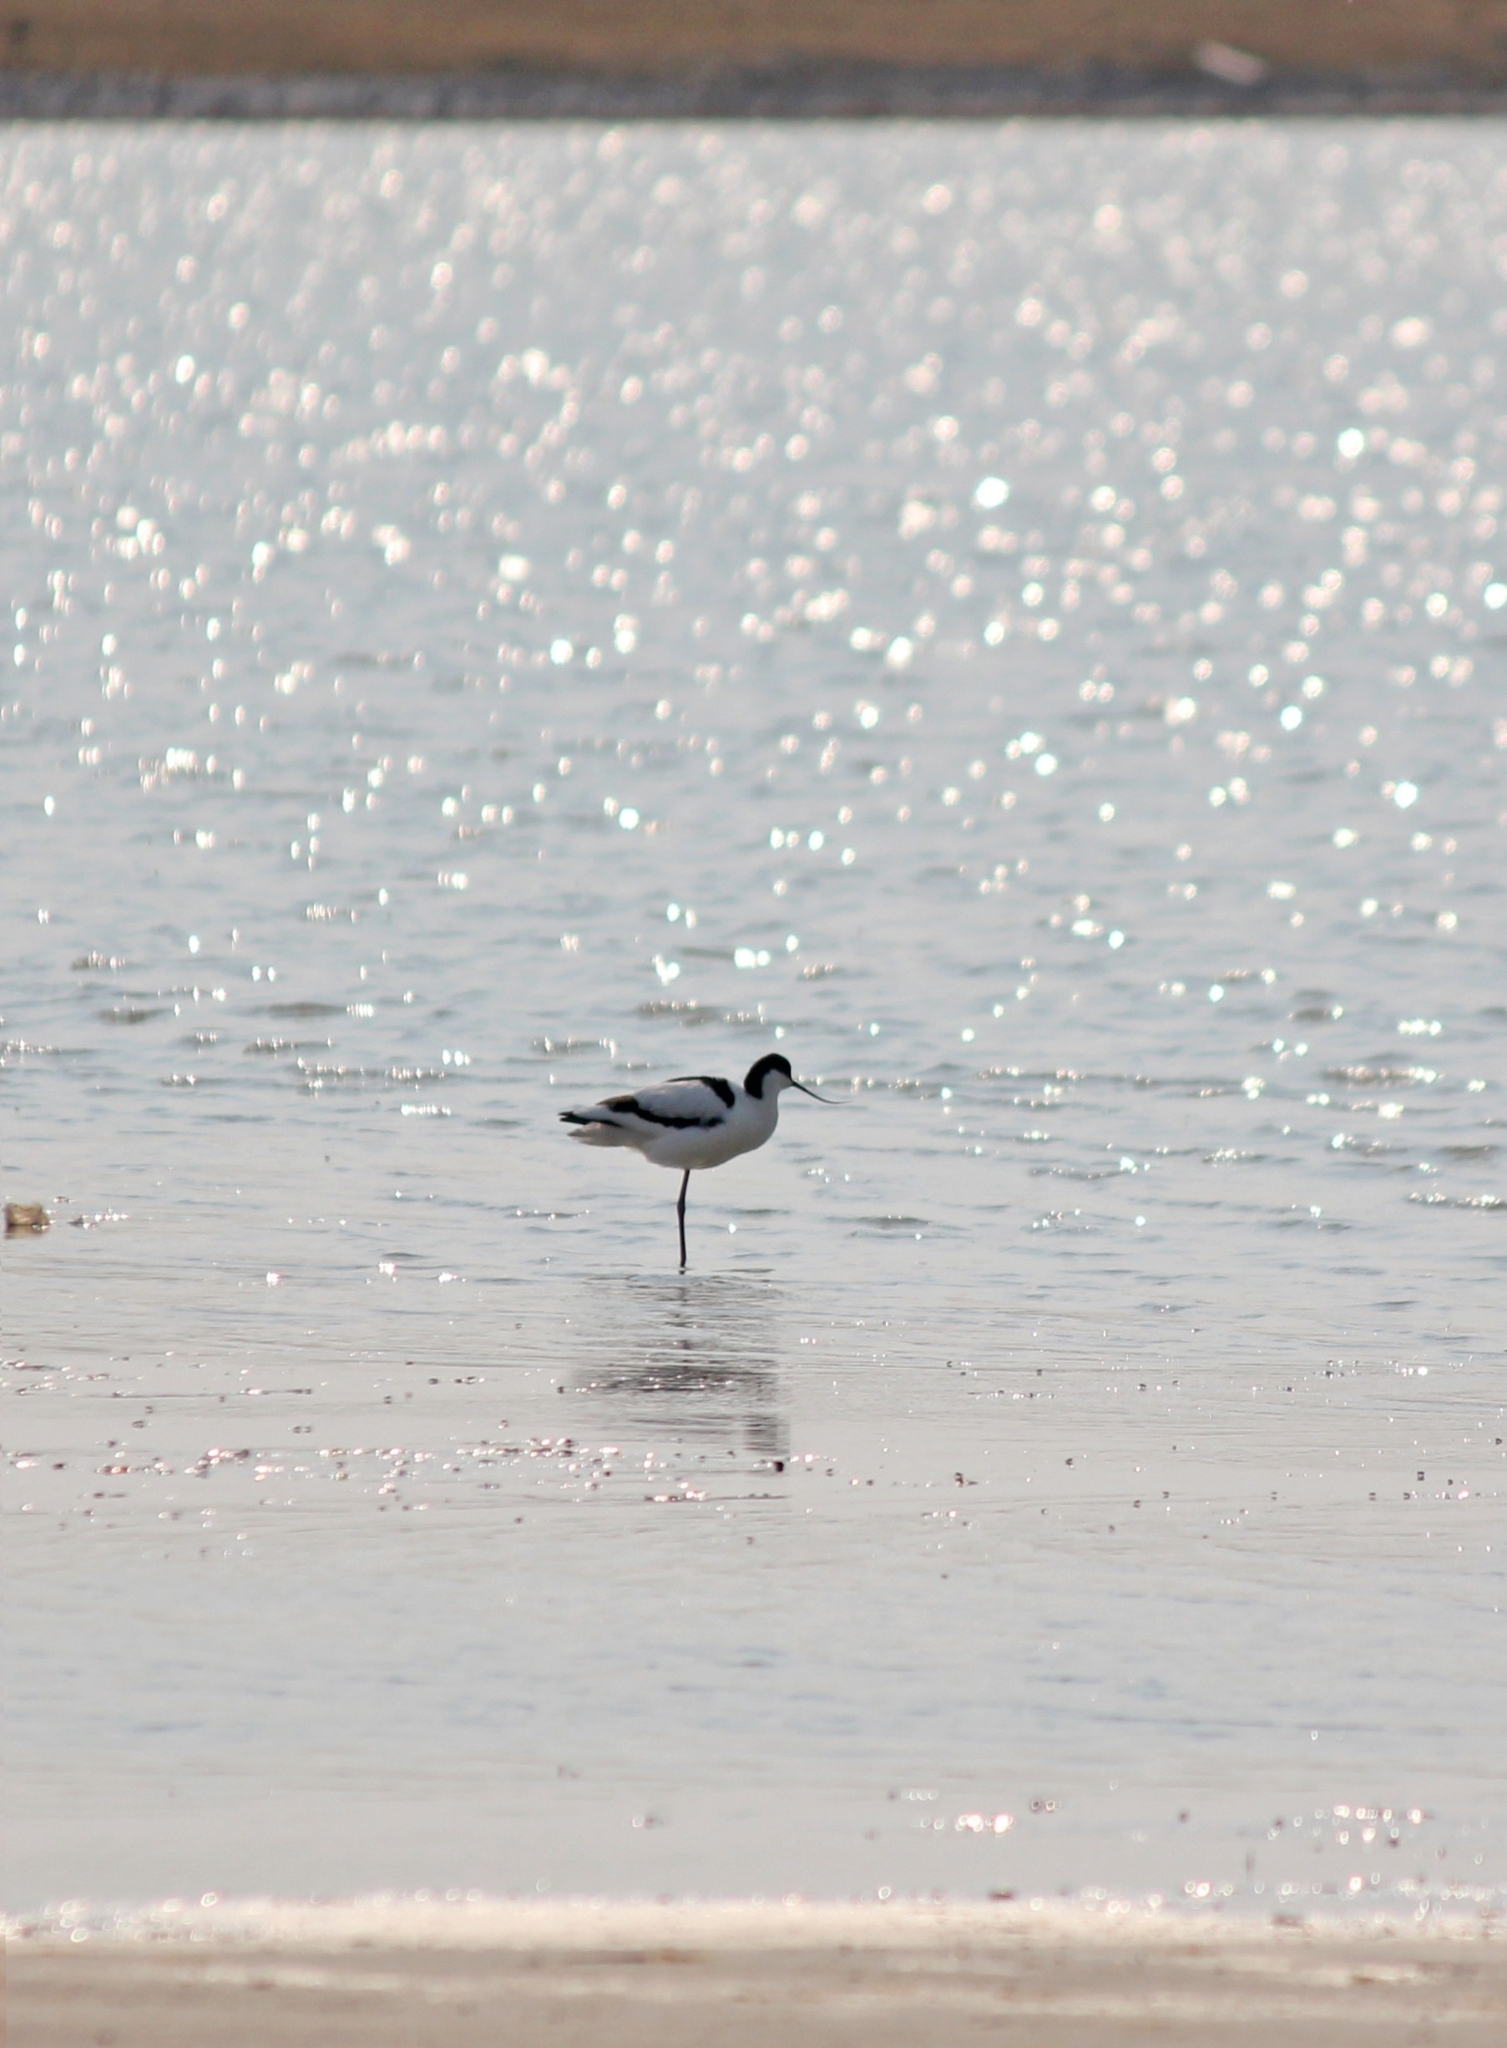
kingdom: Animalia
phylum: Chordata
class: Aves
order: Charadriiformes
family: Recurvirostridae
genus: Recurvirostra
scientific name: Recurvirostra avosetta
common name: Pied avocet
